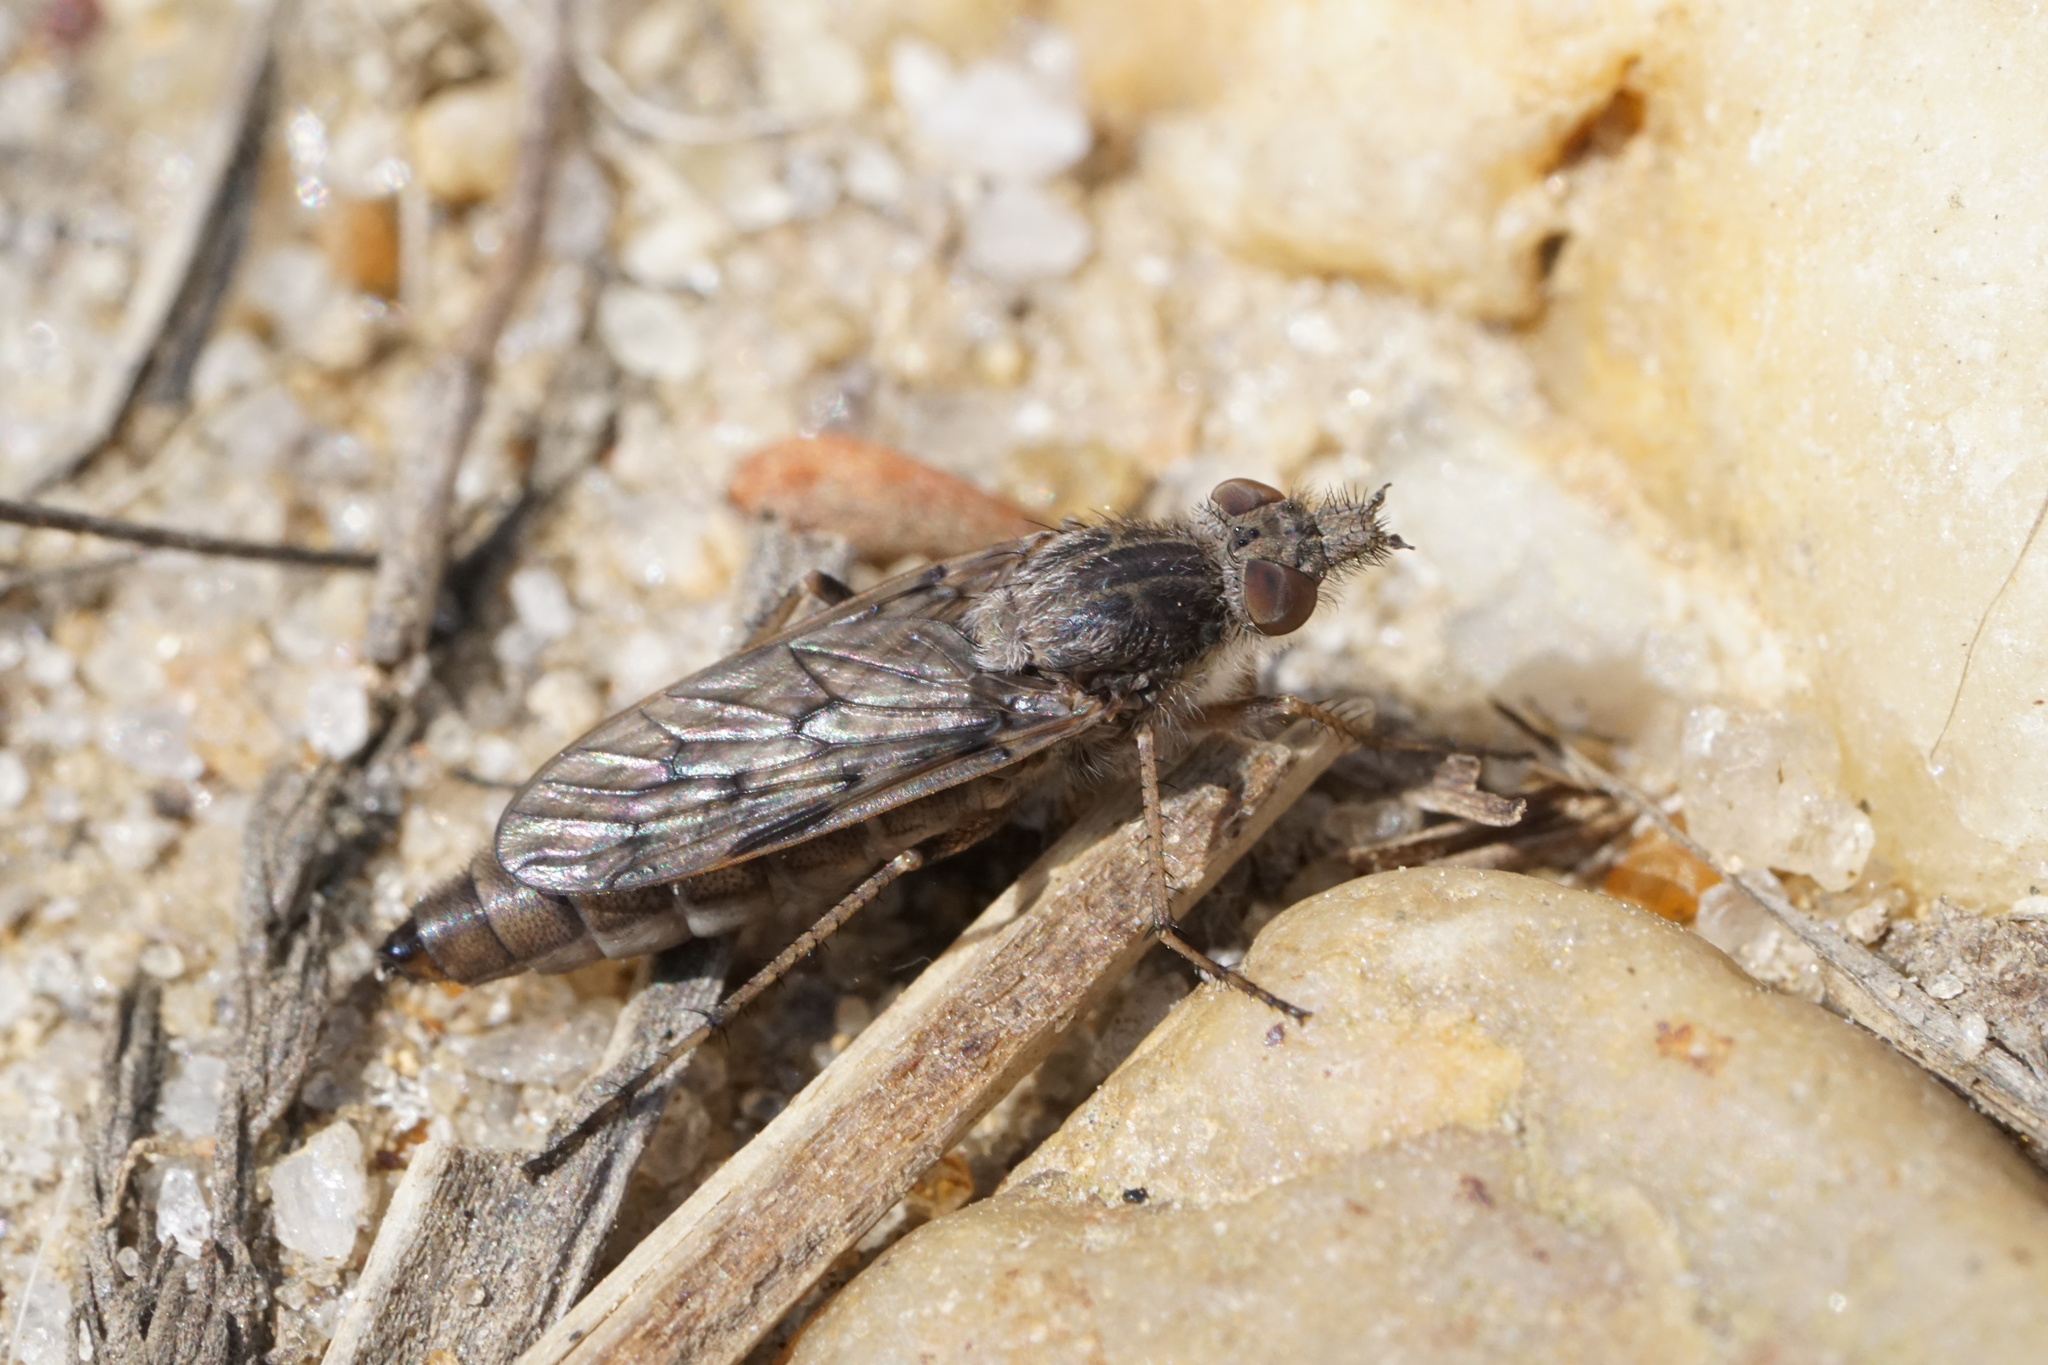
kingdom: Animalia
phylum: Arthropoda
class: Insecta
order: Diptera
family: Therevidae
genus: Tabuda
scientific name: Tabuda varia
